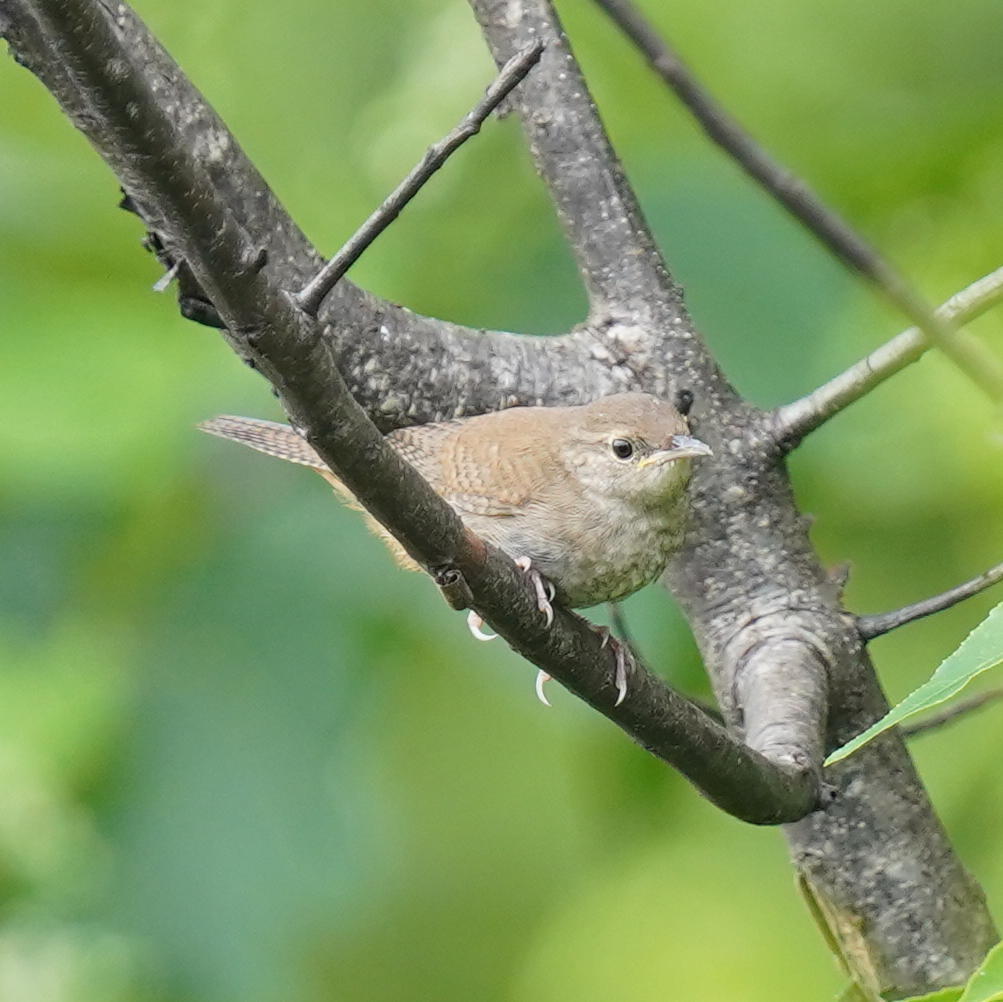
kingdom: Animalia
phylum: Chordata
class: Aves
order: Passeriformes
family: Troglodytidae
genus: Troglodytes
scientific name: Troglodytes aedon
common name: House wren
